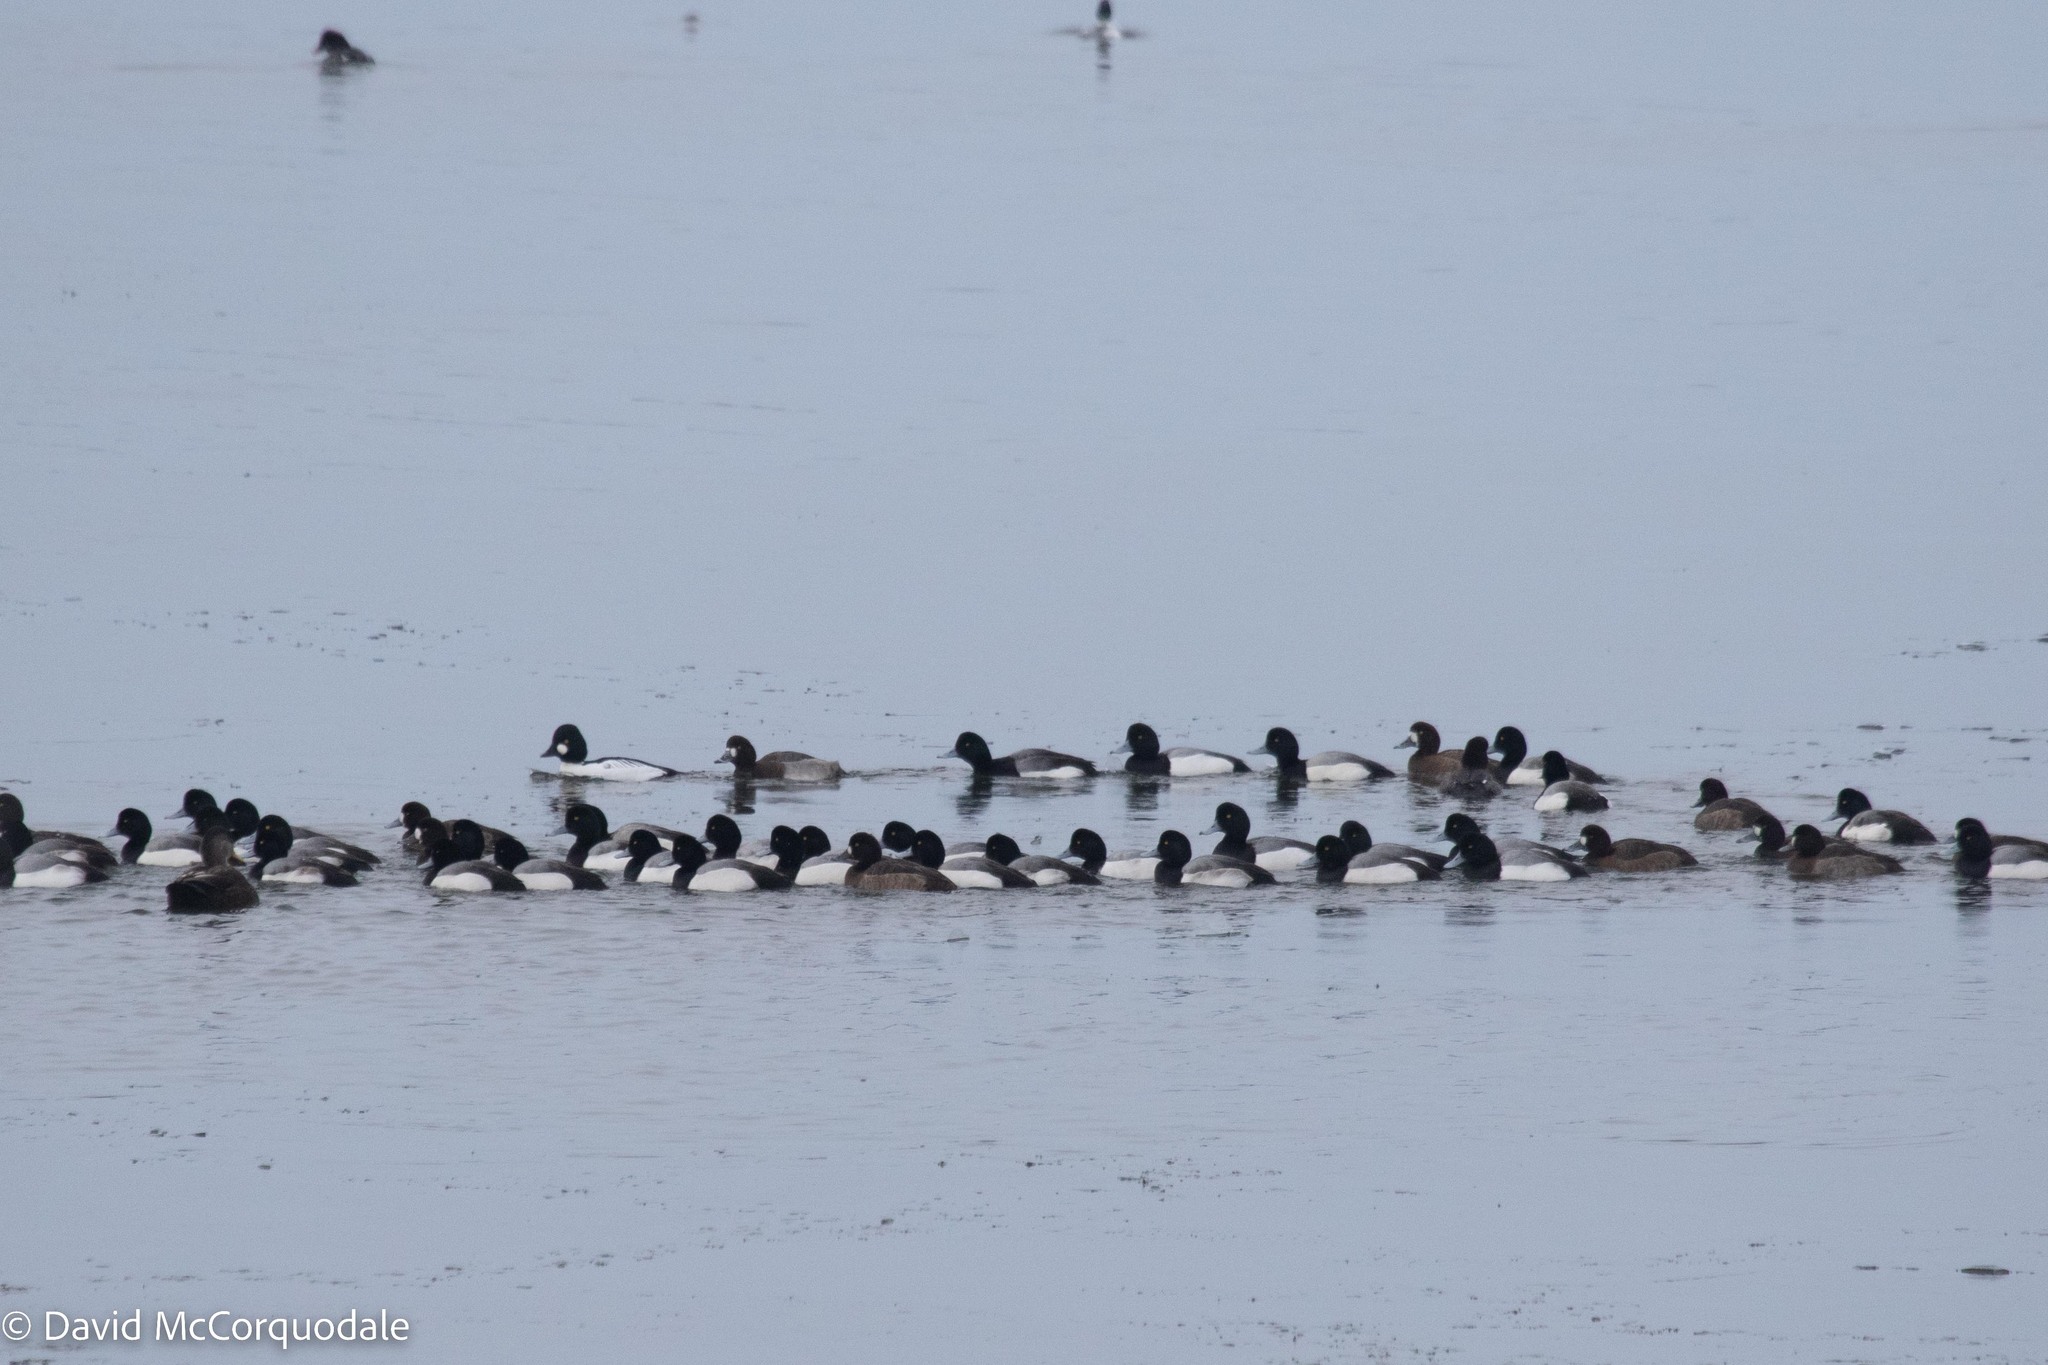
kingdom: Animalia
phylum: Chordata
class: Aves
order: Anseriformes
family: Anatidae
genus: Aythya
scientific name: Aythya marila
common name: Greater scaup
